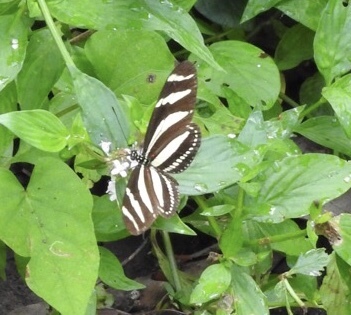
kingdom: Animalia
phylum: Arthropoda
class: Insecta
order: Lepidoptera
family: Nymphalidae
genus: Heliconius
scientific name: Heliconius charithonia
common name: Zebra long wing
